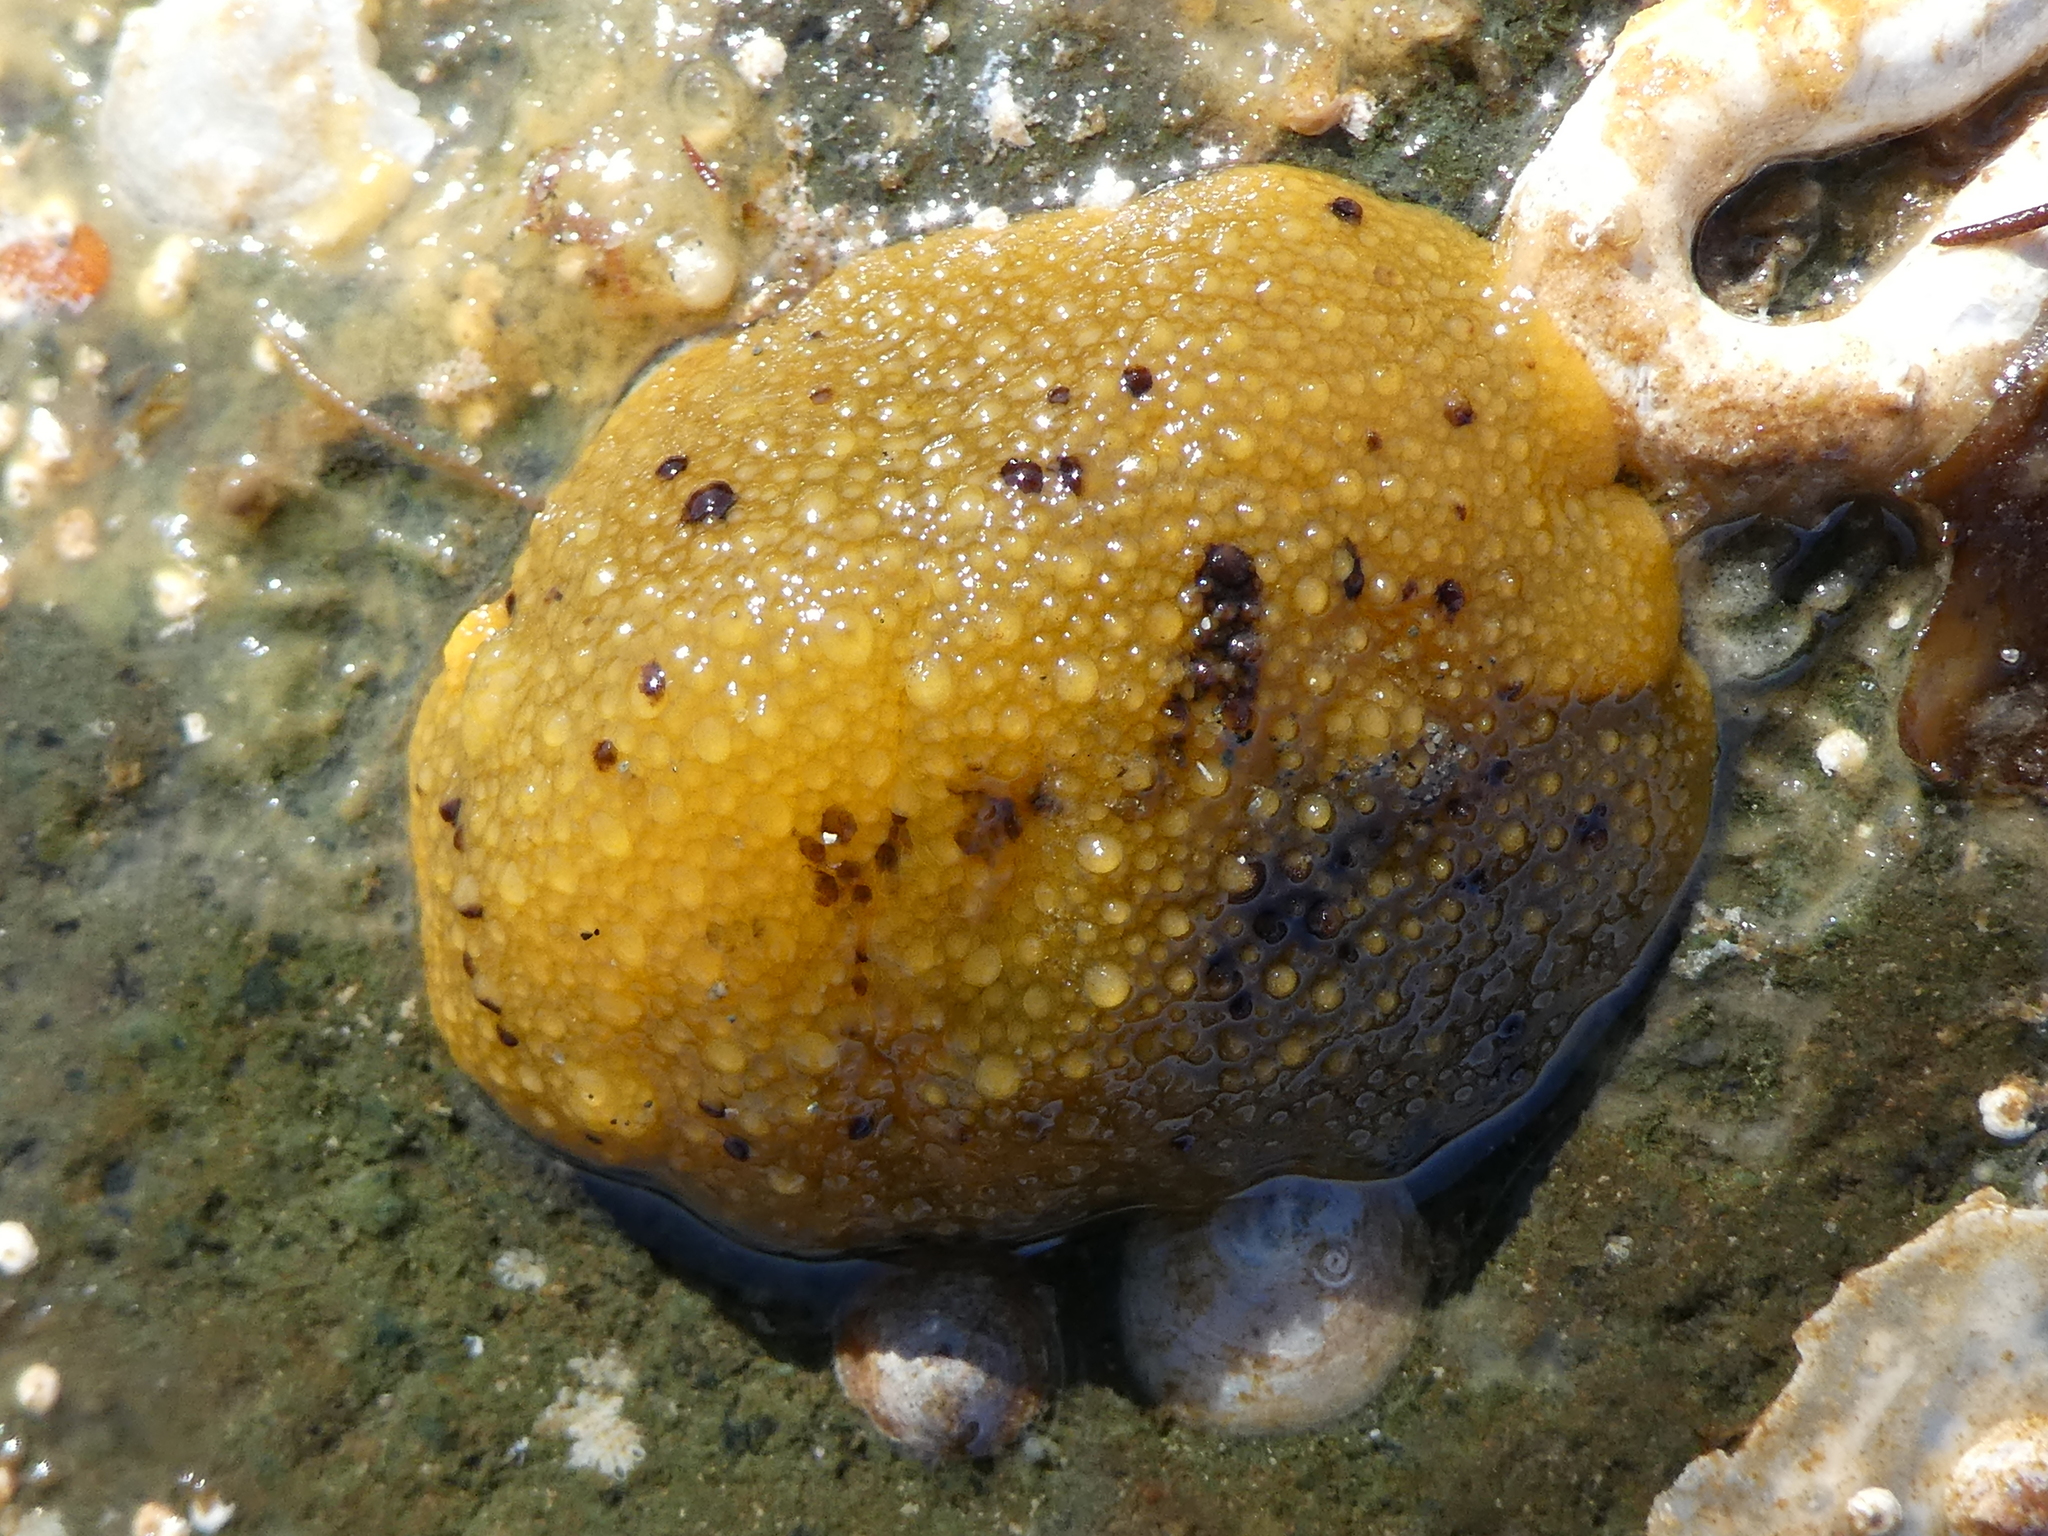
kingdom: Animalia
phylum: Mollusca
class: Gastropoda
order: Nudibranchia
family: Dorididae
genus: Doris
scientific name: Doris montereyensis
